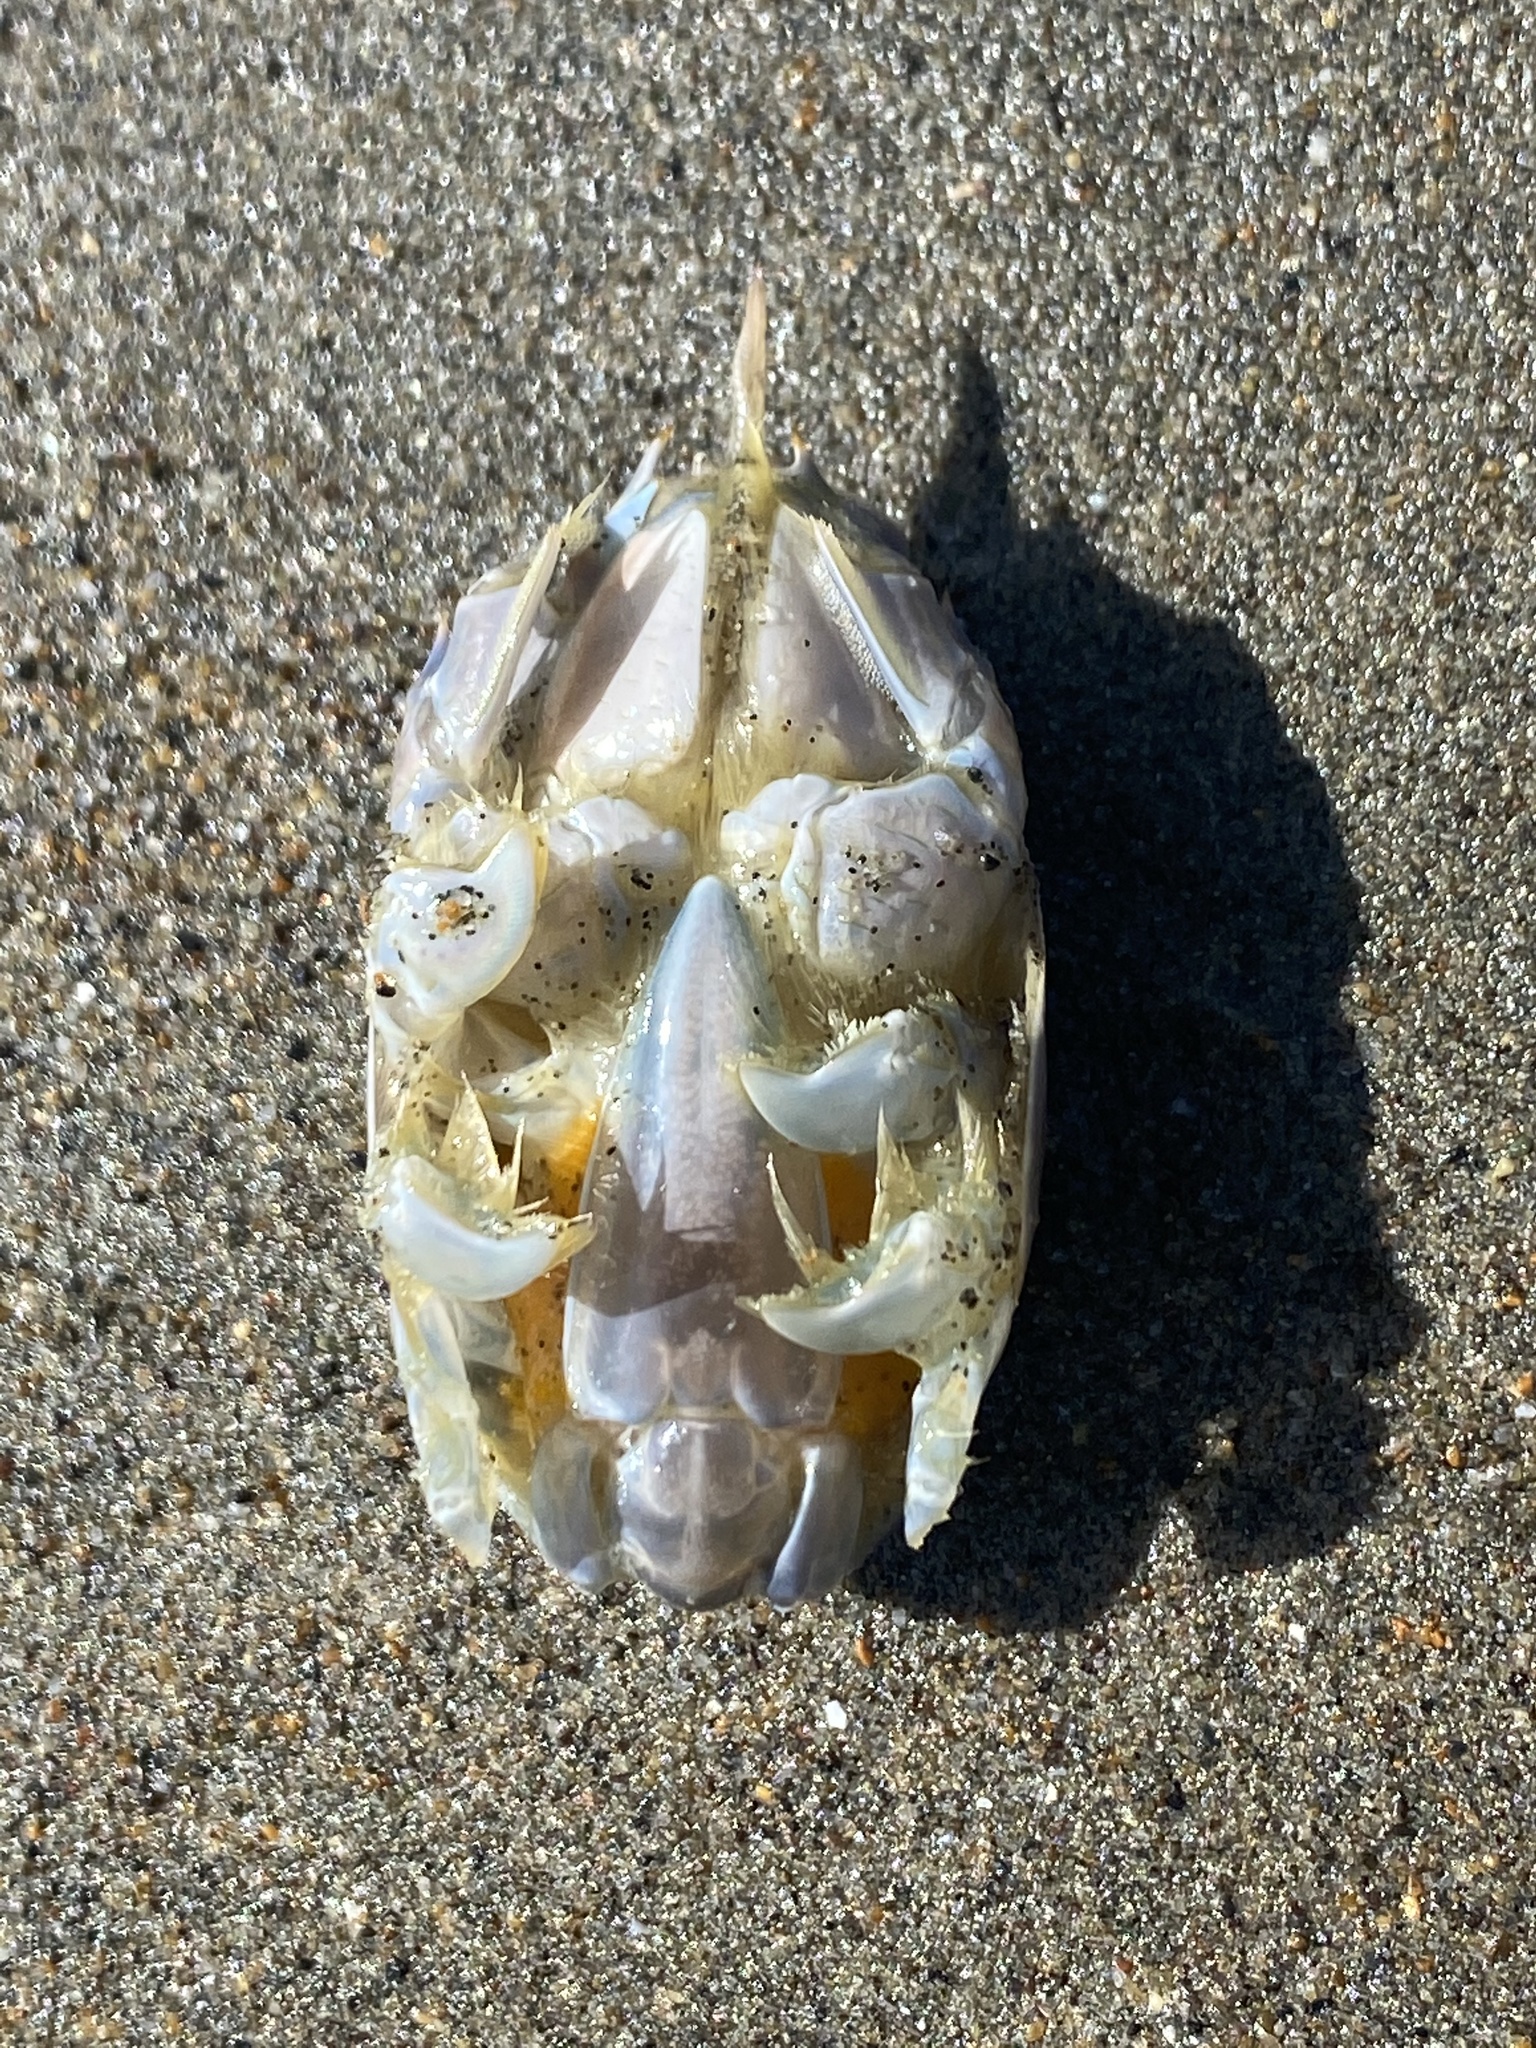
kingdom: Animalia
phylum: Arthropoda
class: Malacostraca
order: Decapoda
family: Hippidae
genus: Emerita
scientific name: Emerita analoga
